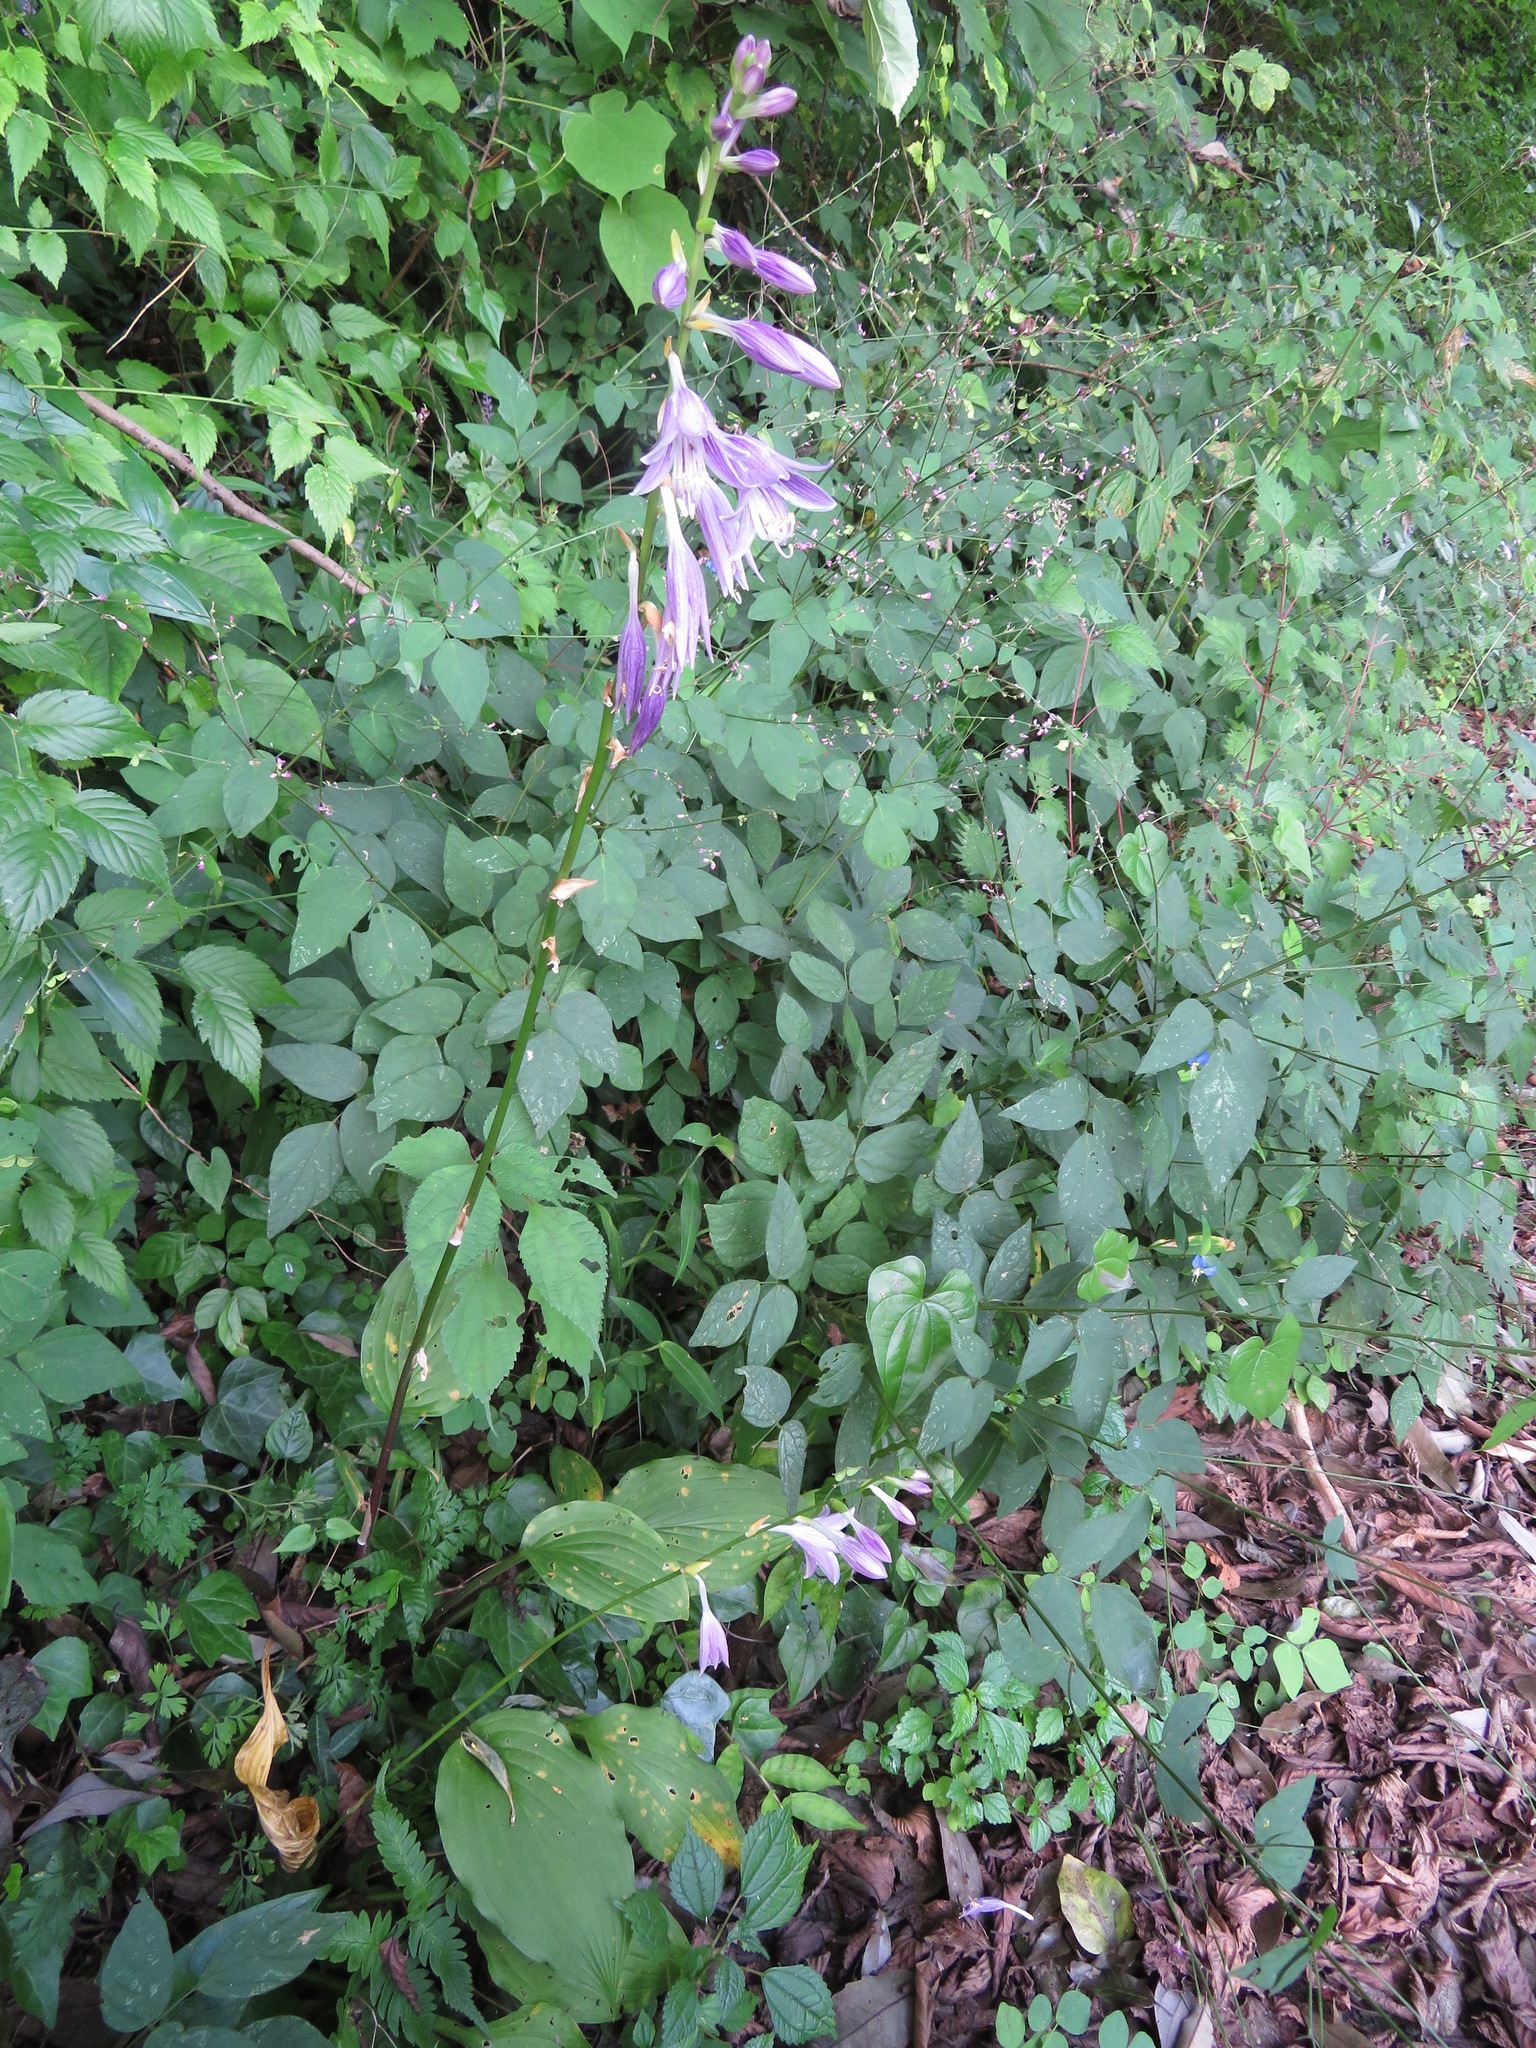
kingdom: Plantae
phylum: Tracheophyta
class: Liliopsida
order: Asparagales
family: Asparagaceae
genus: Hosta
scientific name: Hosta sieboldii
